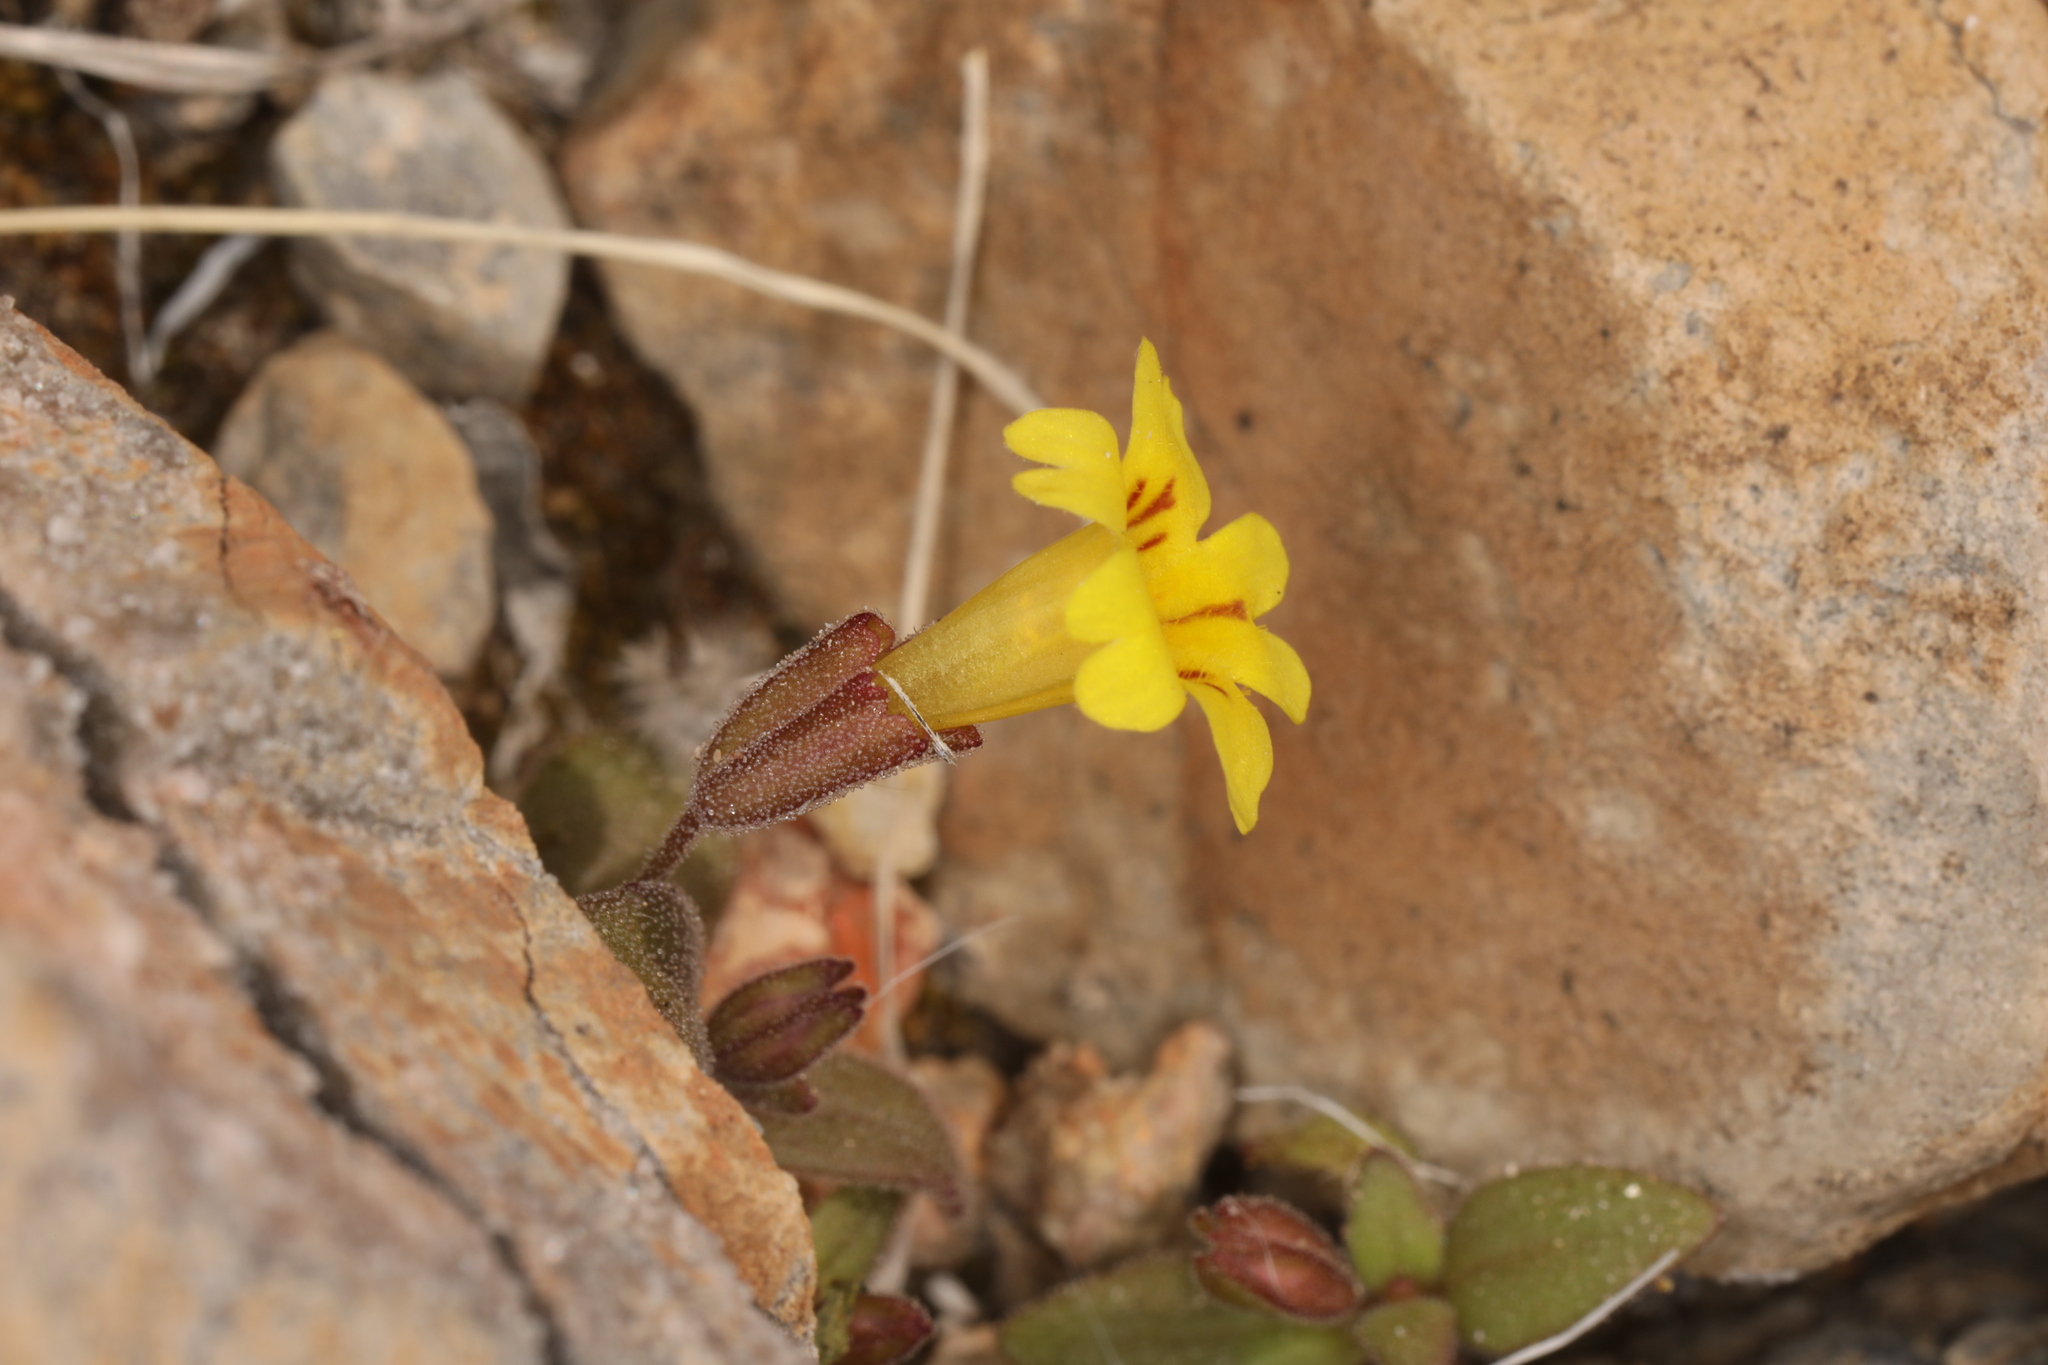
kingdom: Plantae
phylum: Tracheophyta
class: Magnoliopsida
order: Lamiales
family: Phrymaceae
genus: Erythranthe
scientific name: Erythranthe calcicola
